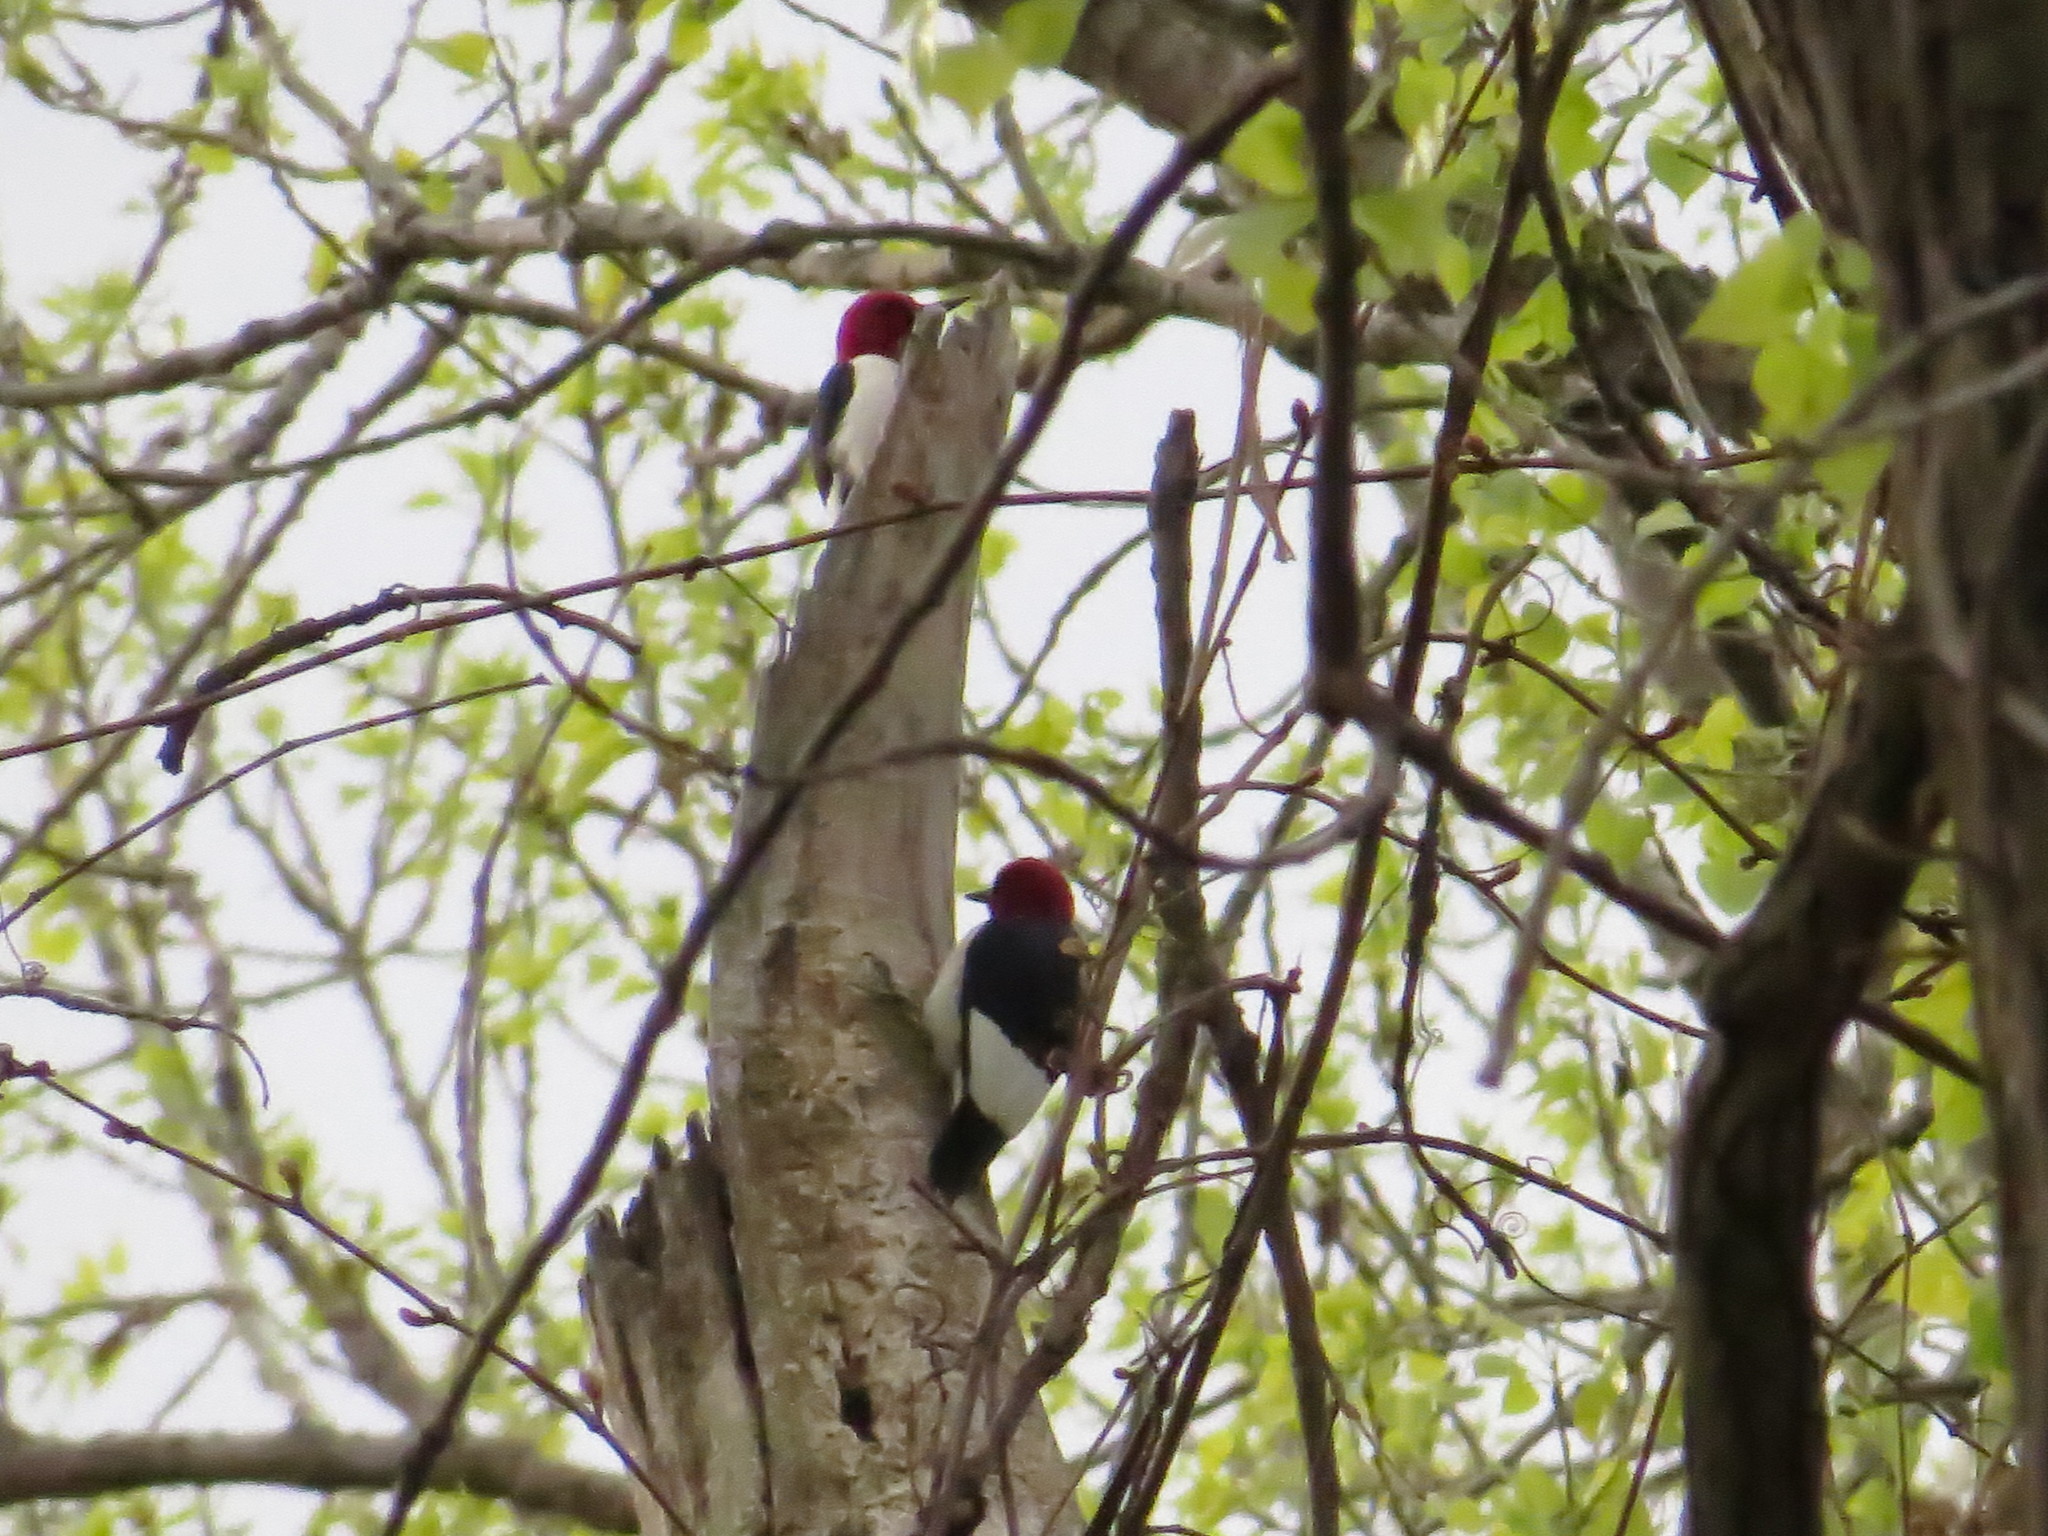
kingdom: Animalia
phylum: Chordata
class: Aves
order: Piciformes
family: Picidae
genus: Melanerpes
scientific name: Melanerpes erythrocephalus
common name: Red-headed woodpecker
